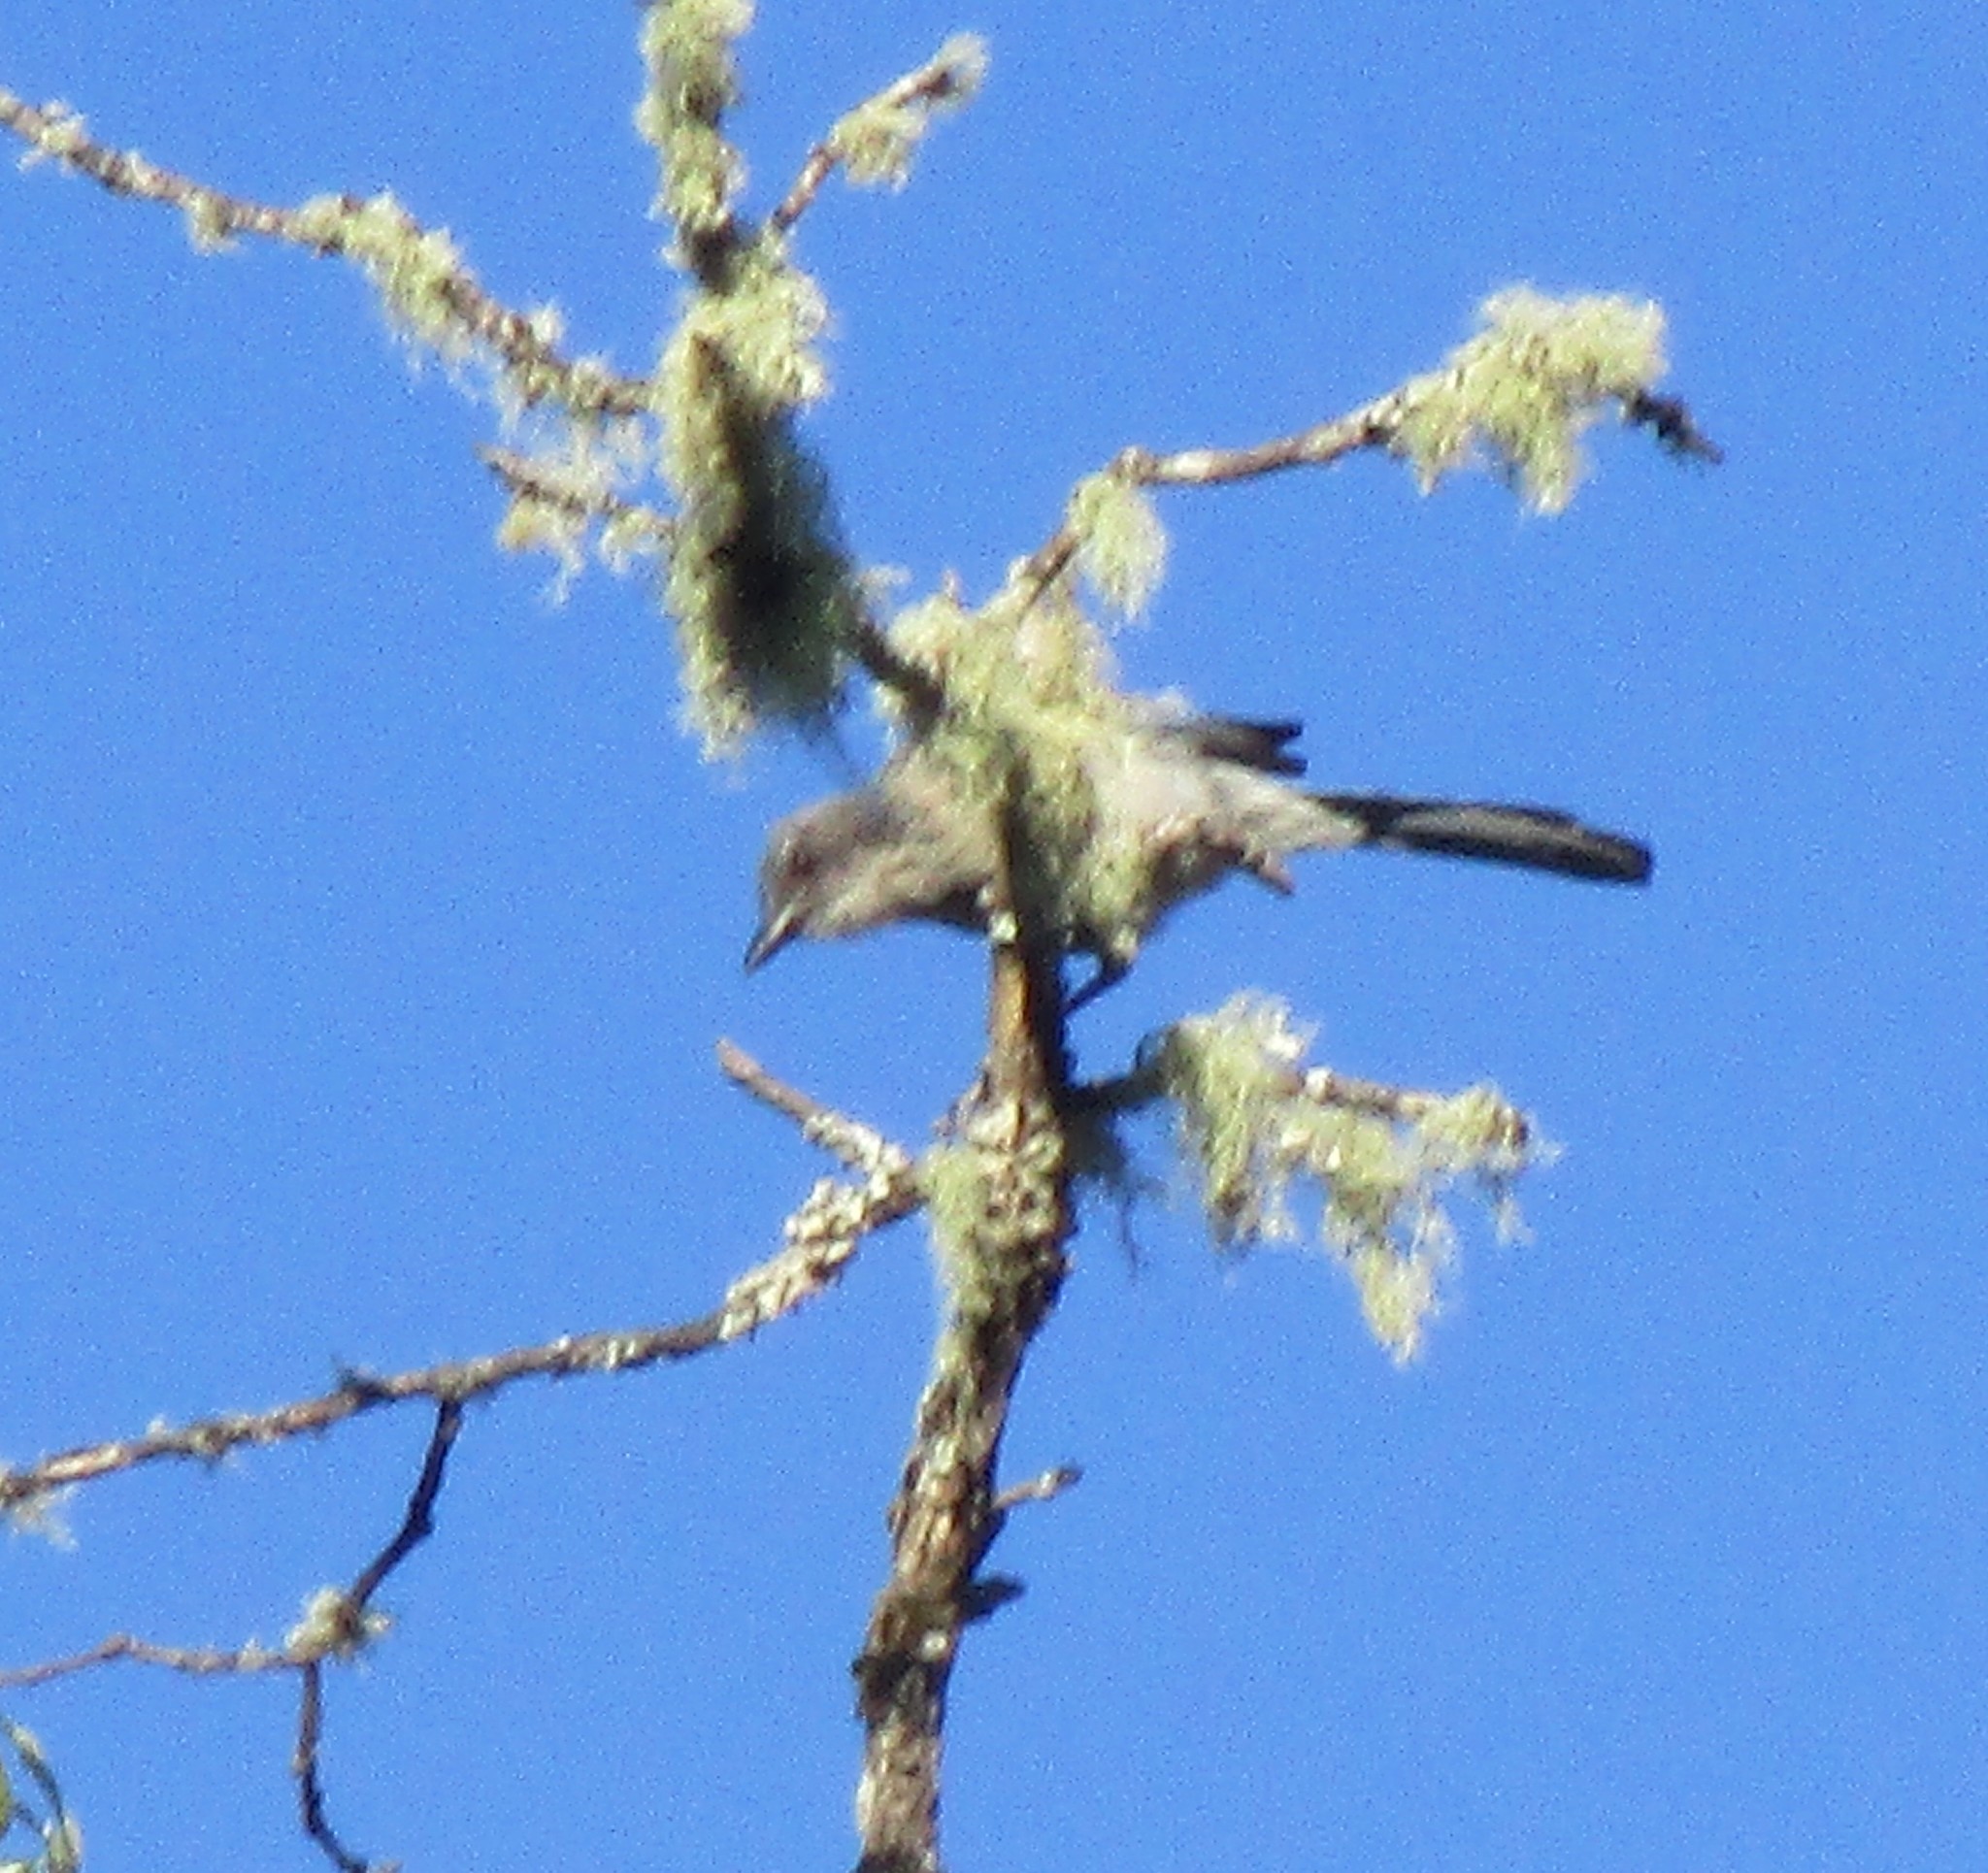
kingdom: Animalia
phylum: Chordata
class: Aves
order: Passeriformes
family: Corvidae
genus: Aphelocoma
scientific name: Aphelocoma californica
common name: California scrub-jay
